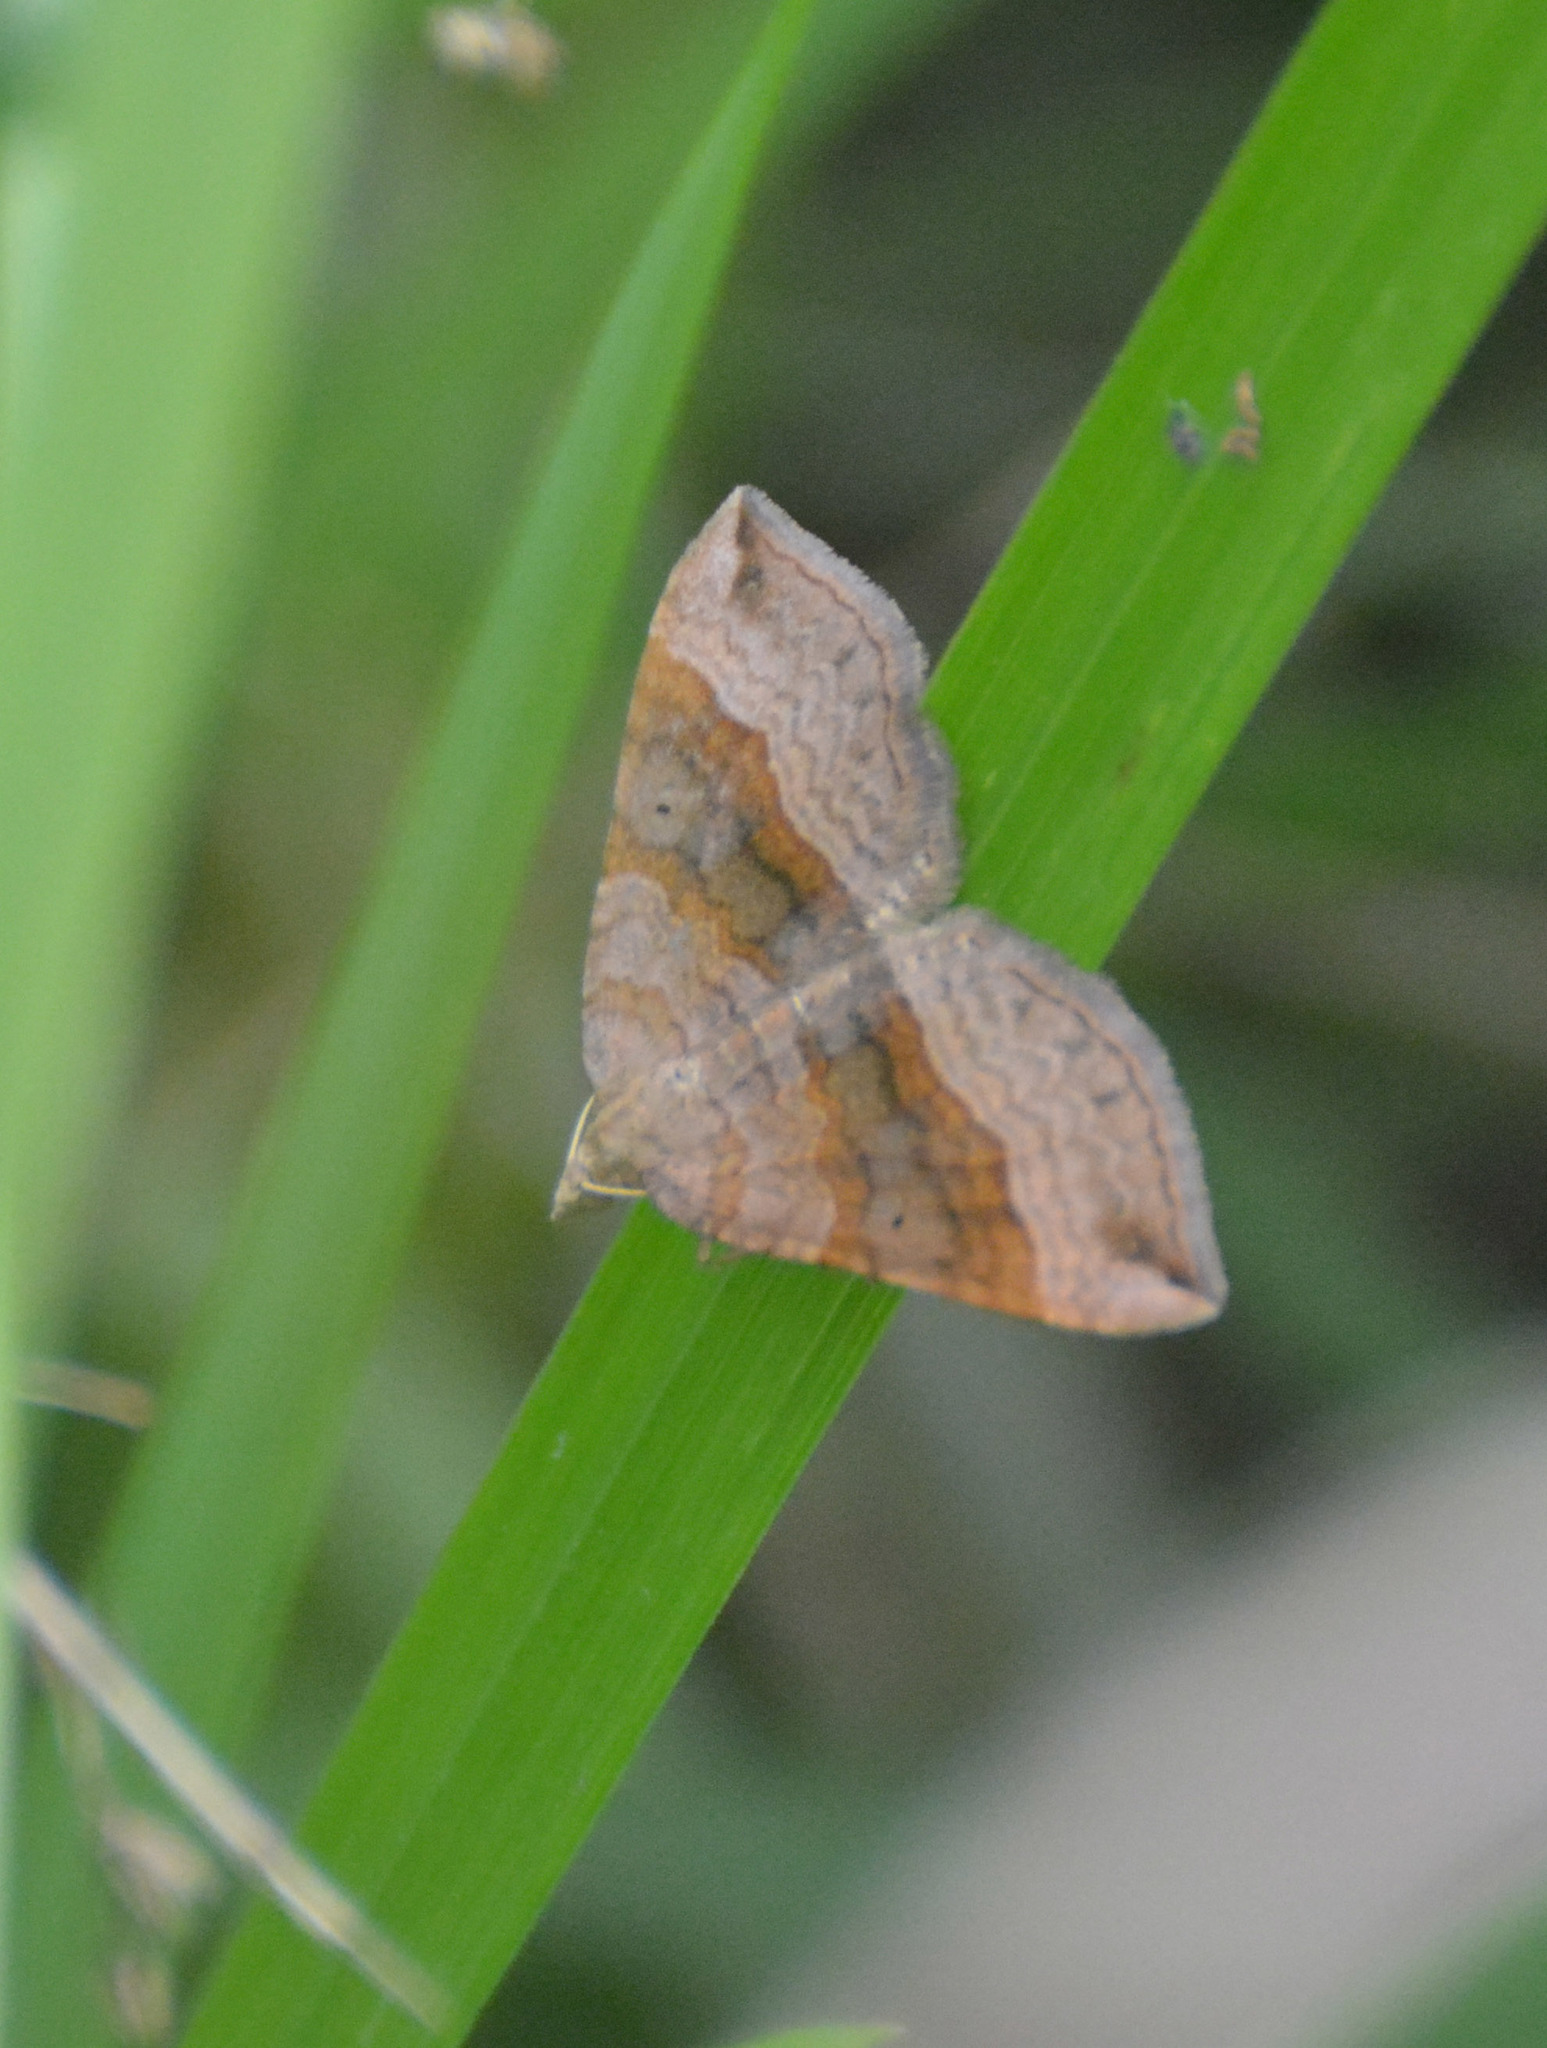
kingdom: Animalia
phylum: Arthropoda
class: Insecta
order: Lepidoptera
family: Geometridae
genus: Scotopteryx
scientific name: Scotopteryx chenopodiata
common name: Shaded broad-bar
